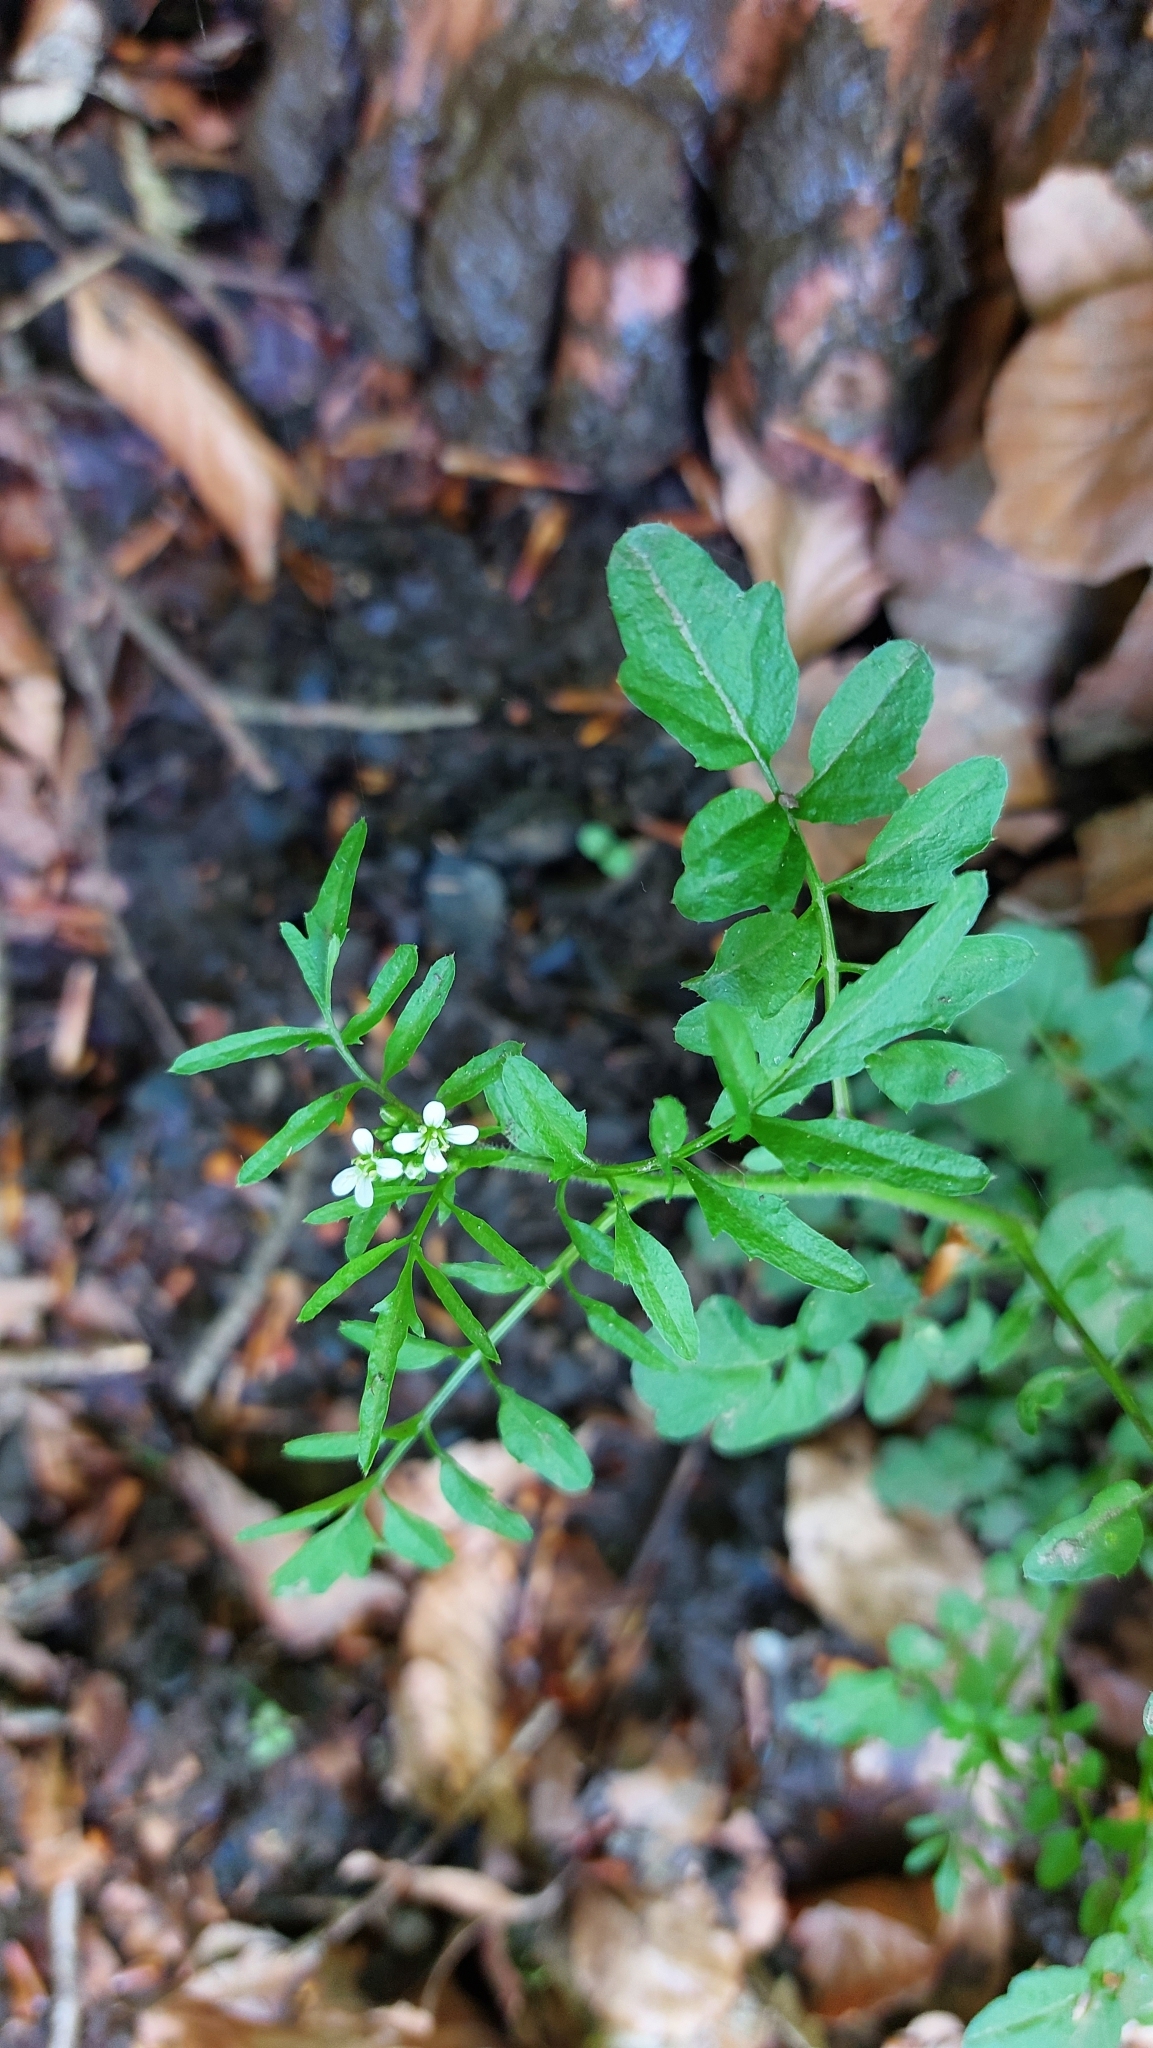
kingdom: Plantae
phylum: Tracheophyta
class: Magnoliopsida
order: Brassicales
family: Brassicaceae
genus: Cardamine
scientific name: Cardamine flexuosa
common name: Woodland bittercress
